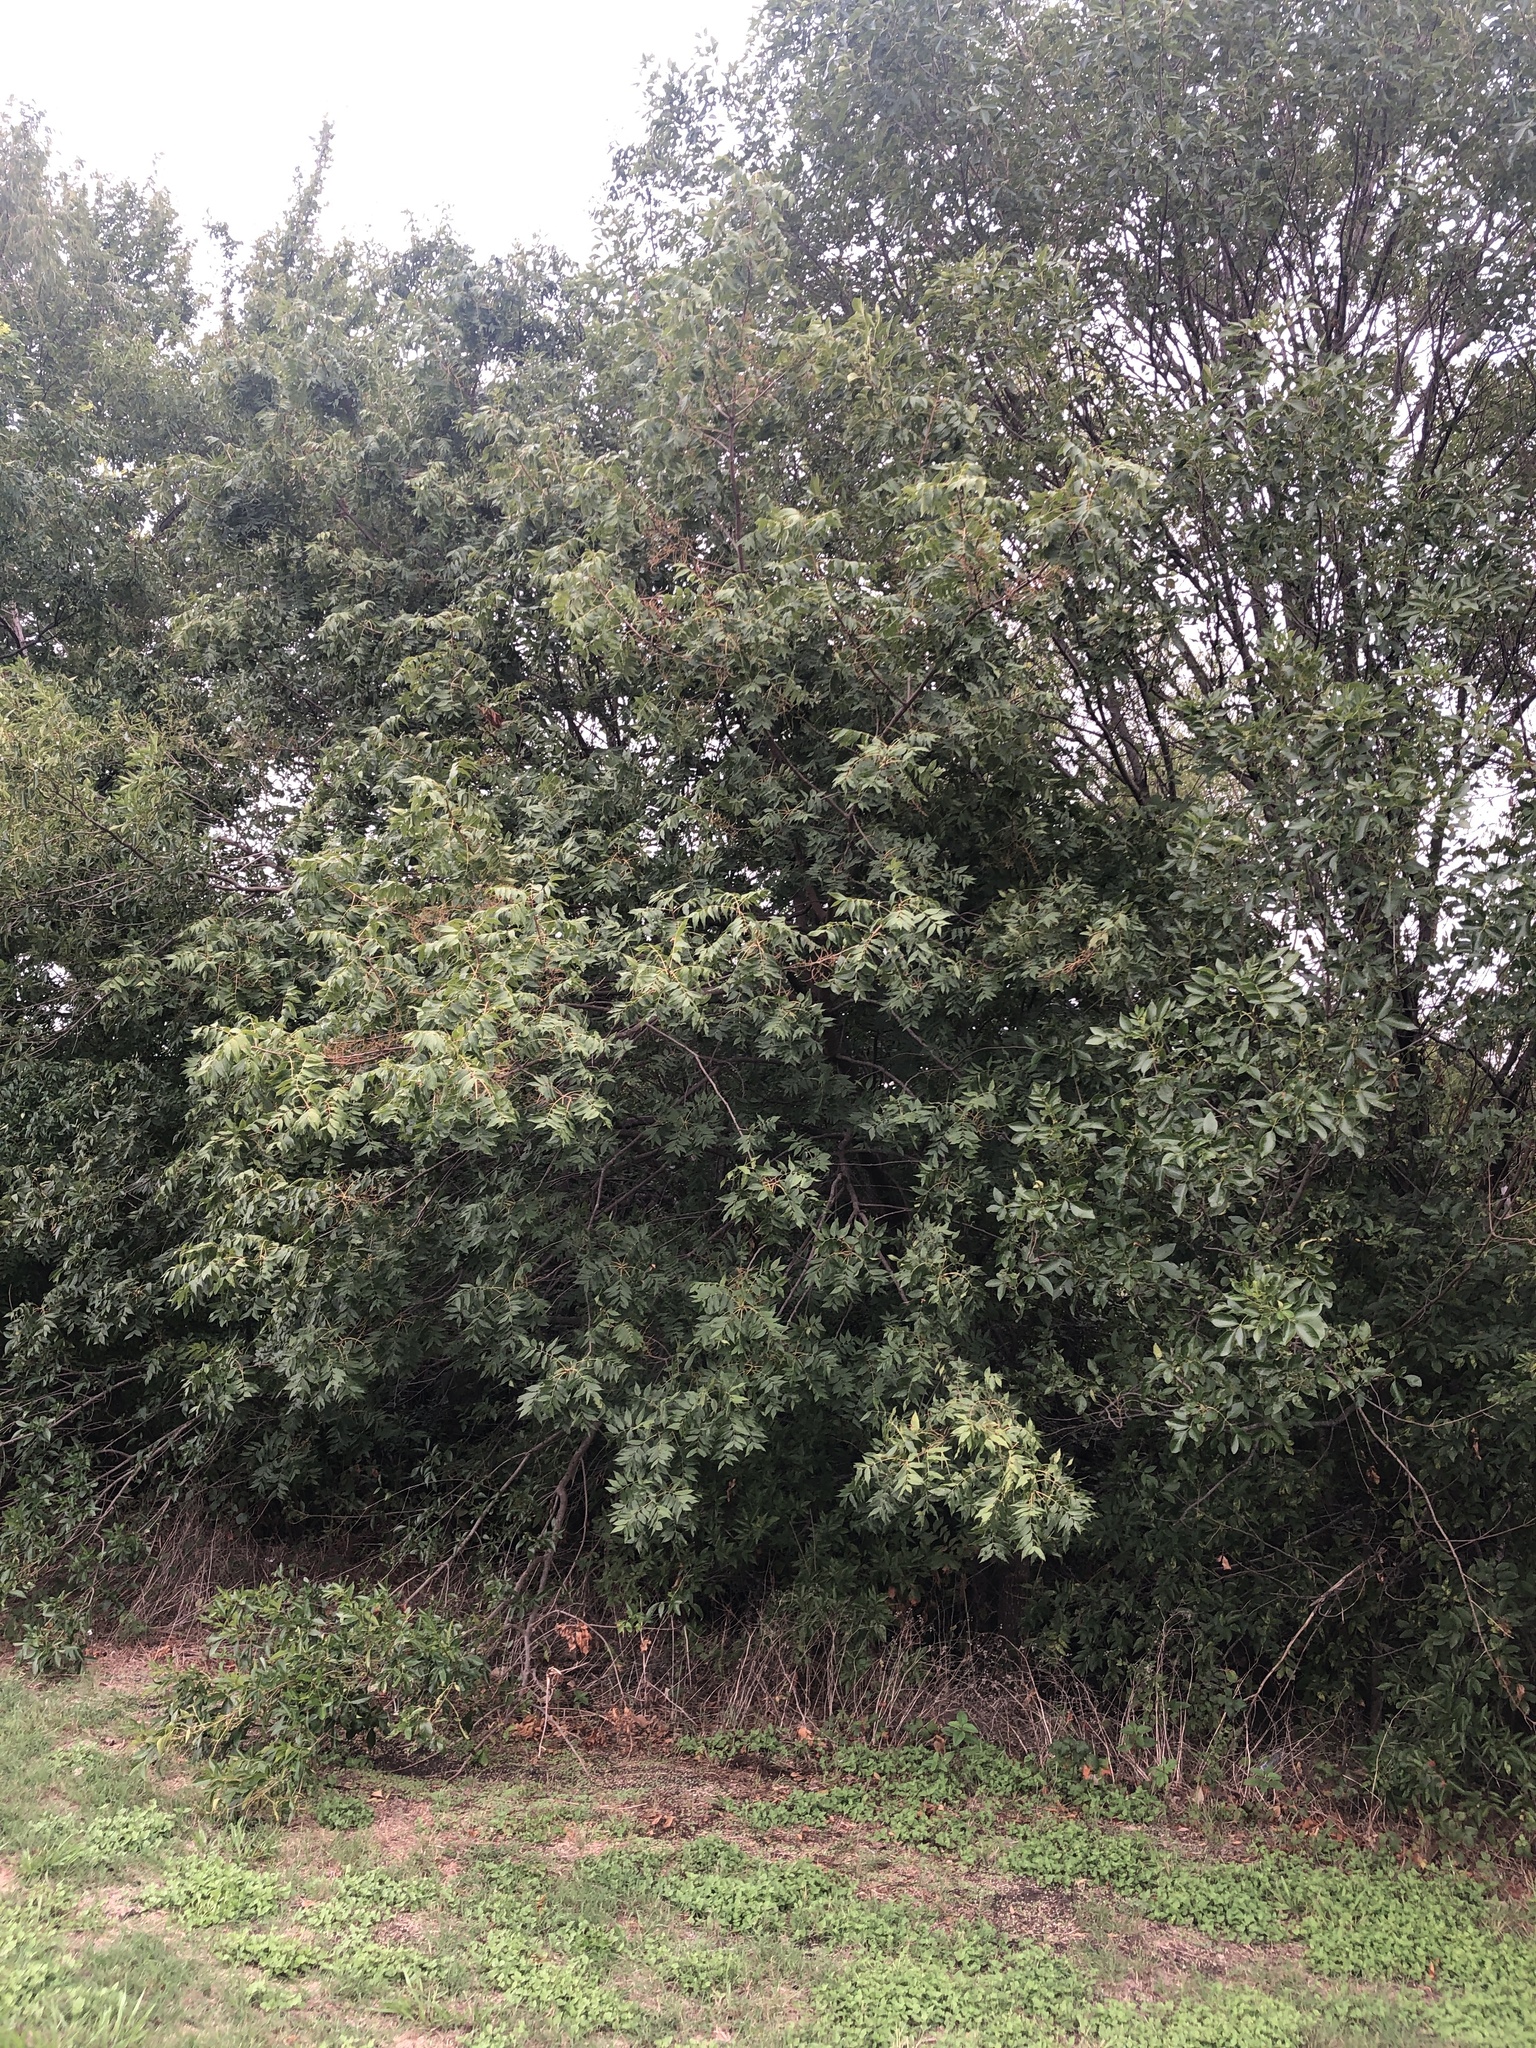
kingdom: Plantae
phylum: Tracheophyta
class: Magnoliopsida
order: Sapindales
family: Anacardiaceae
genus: Pistacia
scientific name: Pistacia chinensis
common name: Chinese pistache
